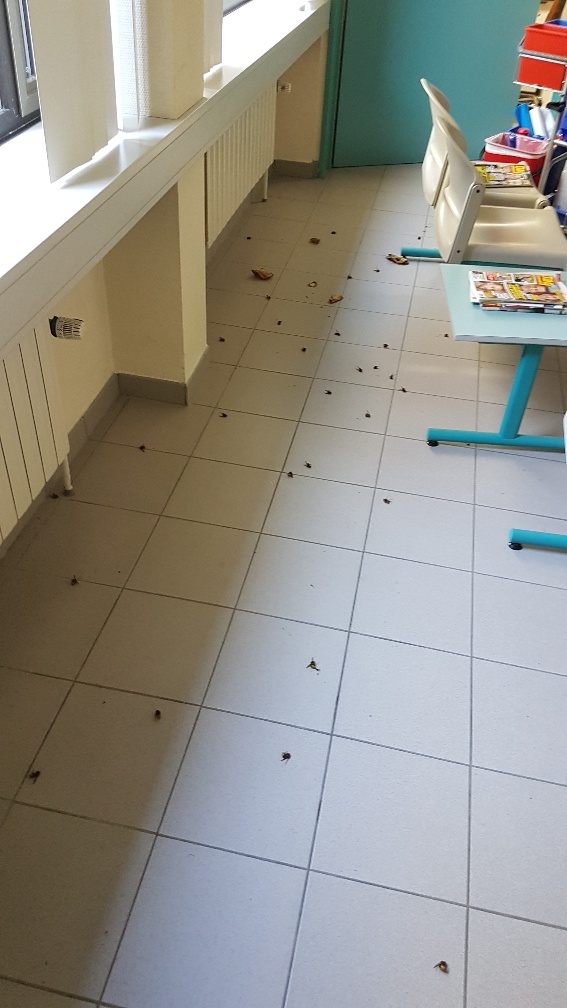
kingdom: Animalia
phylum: Arthropoda
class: Insecta
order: Hymenoptera
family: Vespidae
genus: Vespa
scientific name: Vespa crabro
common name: Hornet
